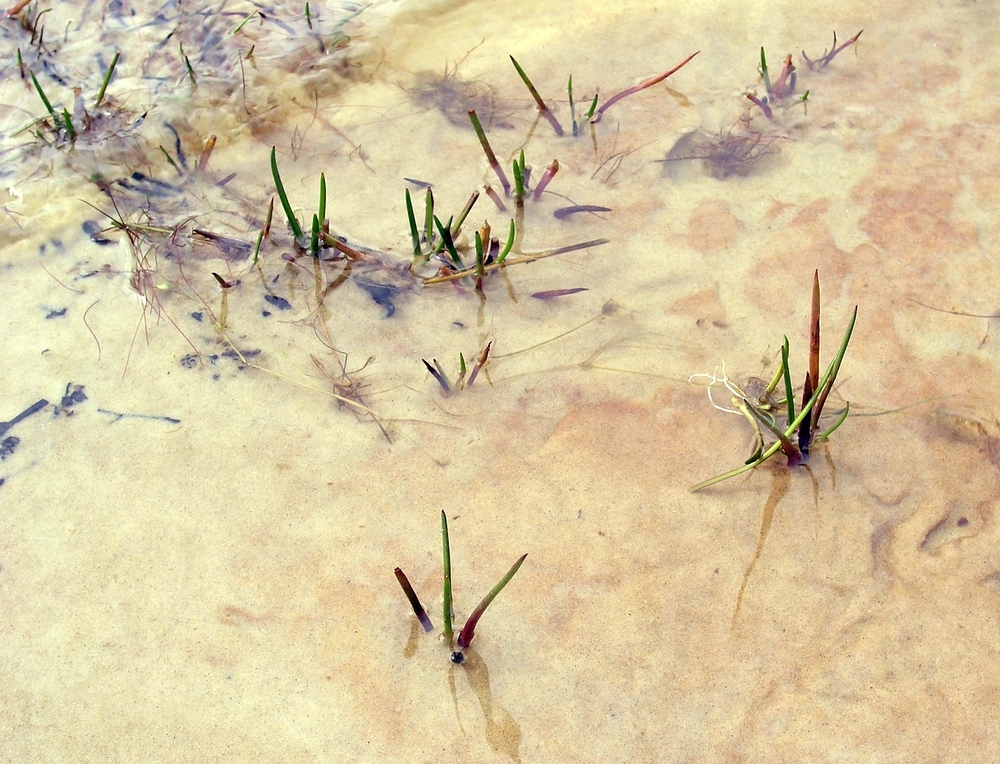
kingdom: Plantae
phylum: Tracheophyta
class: Magnoliopsida
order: Lamiales
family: Plantaginaceae
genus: Littorella
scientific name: Littorella uniflora
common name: Shoreweed
